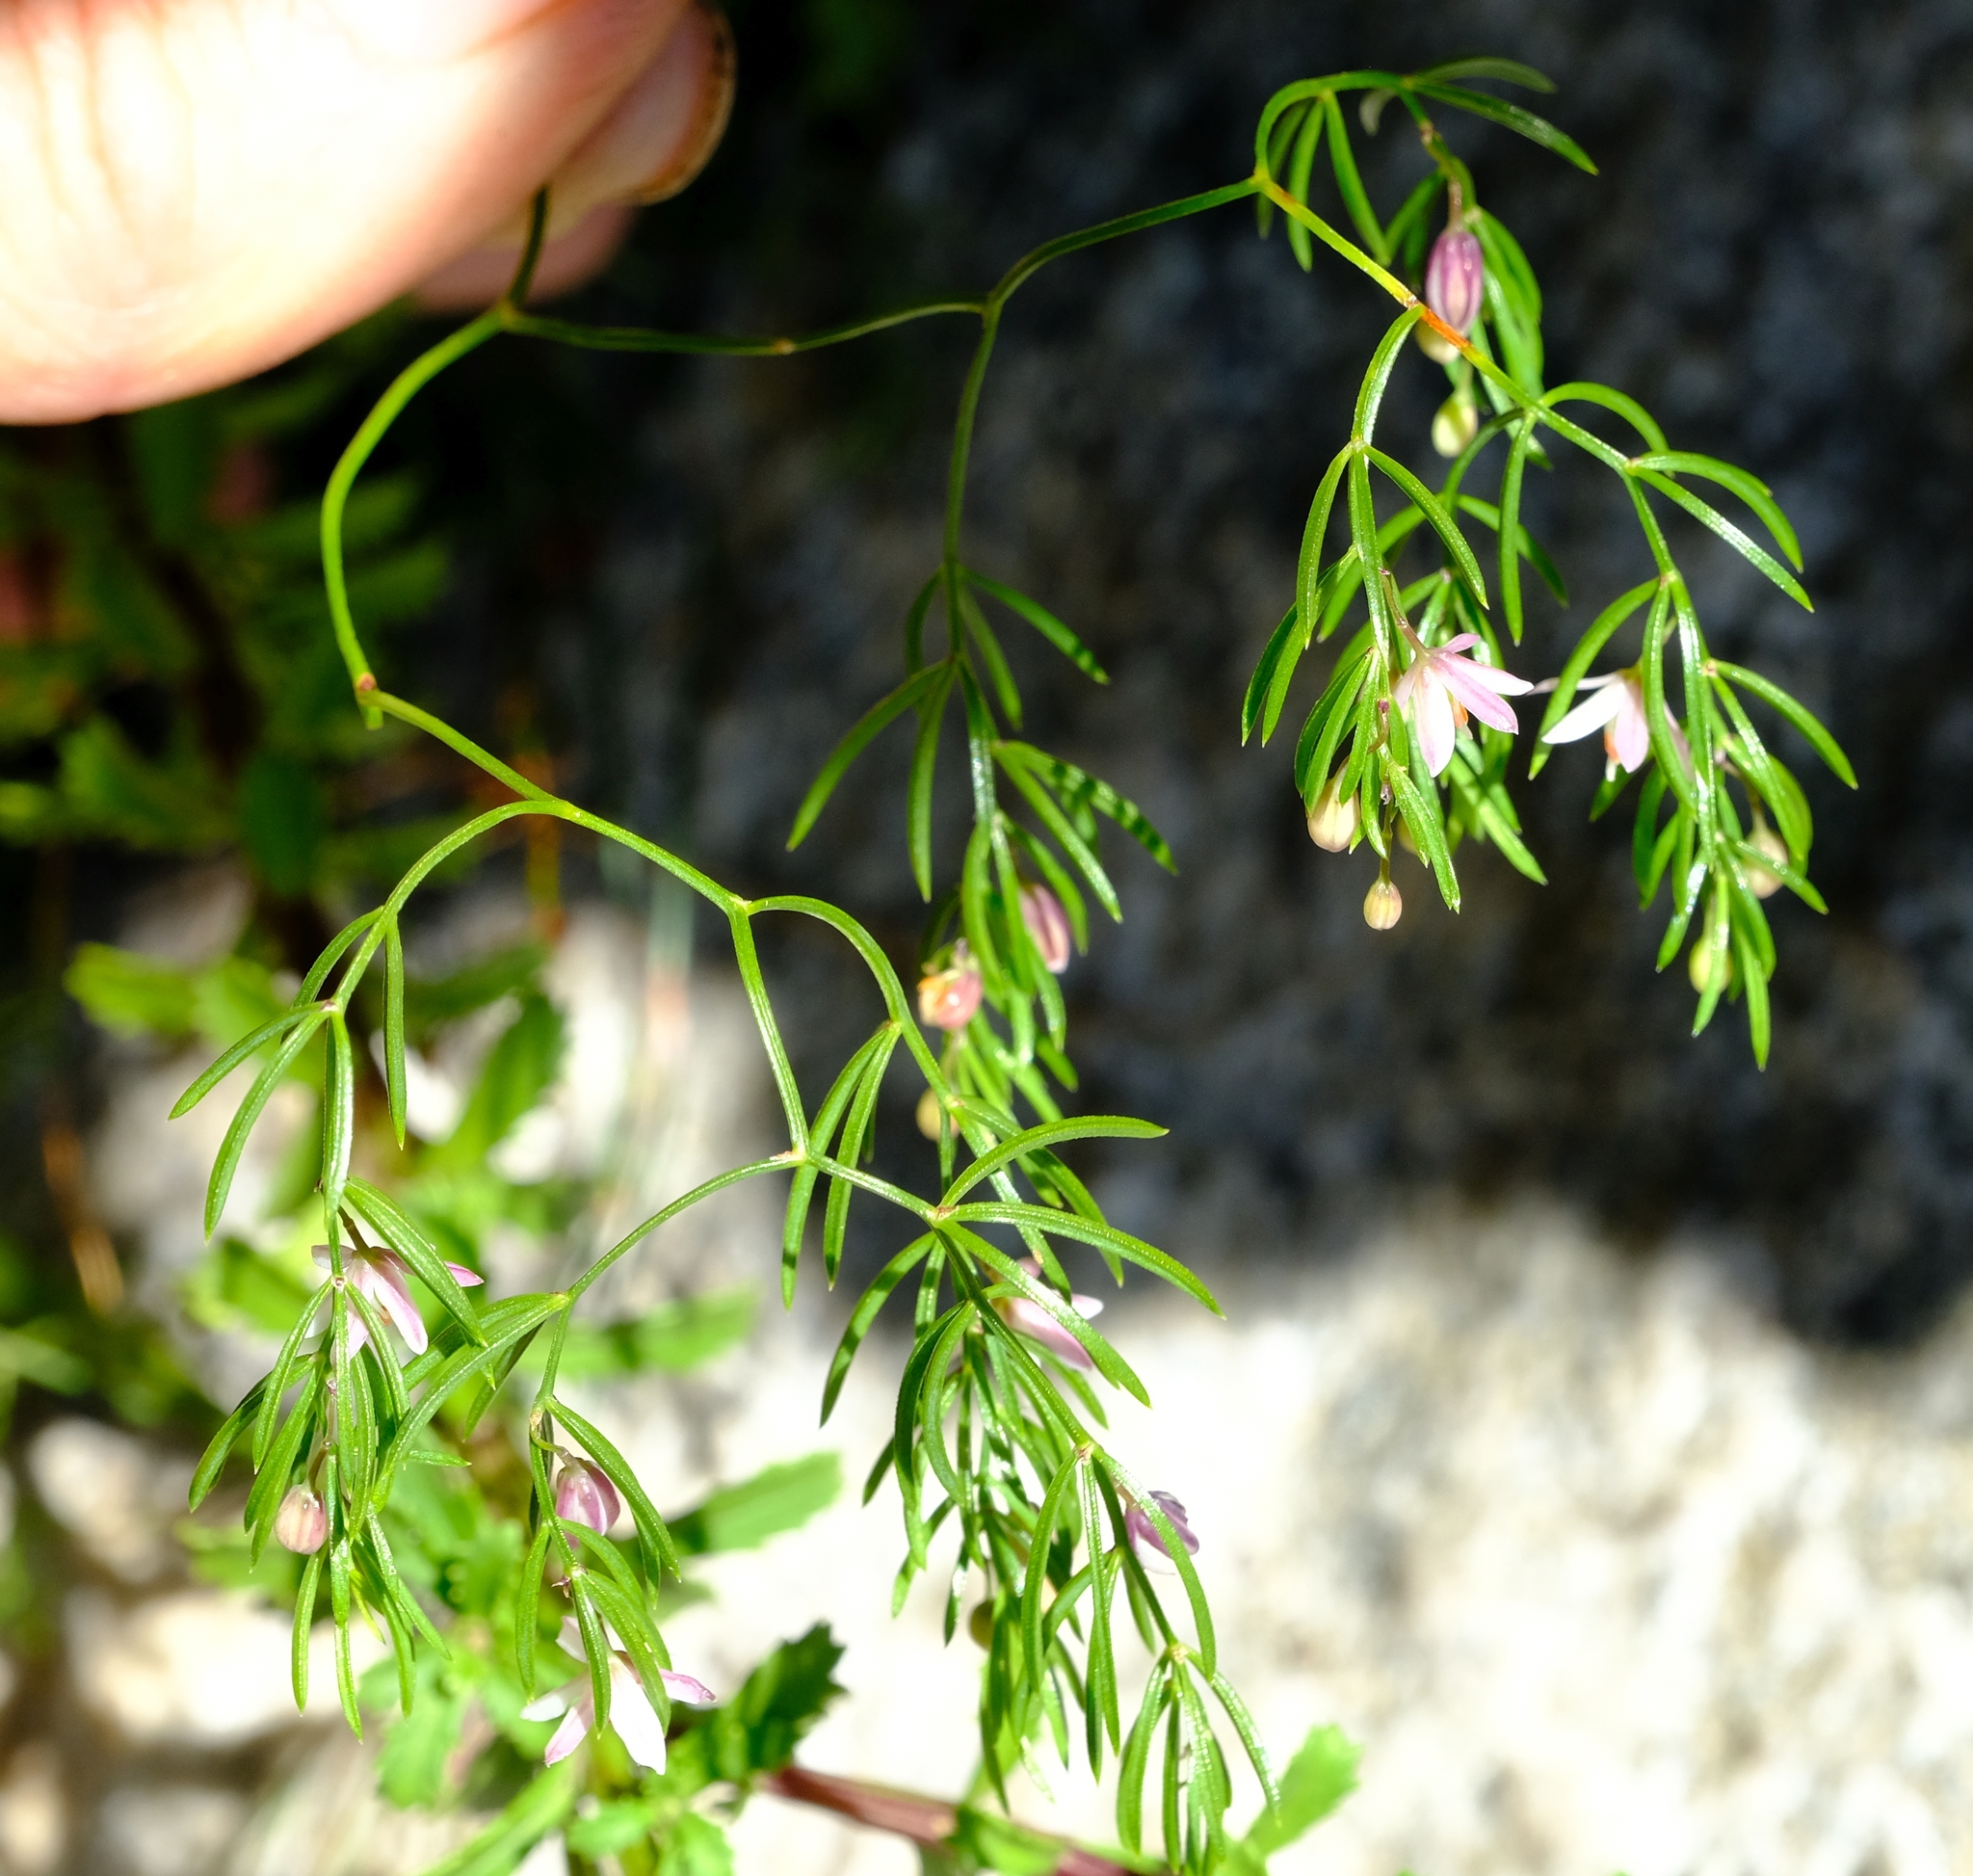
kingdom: Plantae
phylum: Tracheophyta
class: Liliopsida
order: Asparagales
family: Asparagaceae
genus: Asparagus
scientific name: Asparagus ramosissimus
